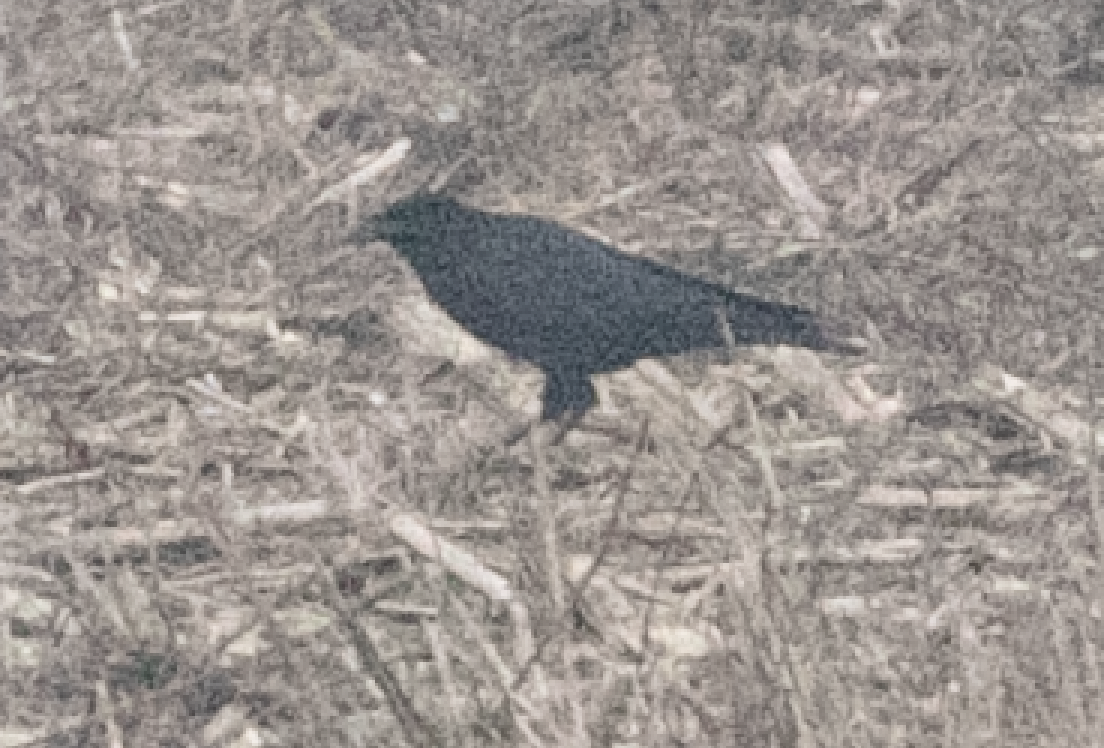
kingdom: Animalia
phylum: Chordata
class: Aves
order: Passeriformes
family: Corvidae
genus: Corvus
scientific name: Corvus corone
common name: Carrion crow
